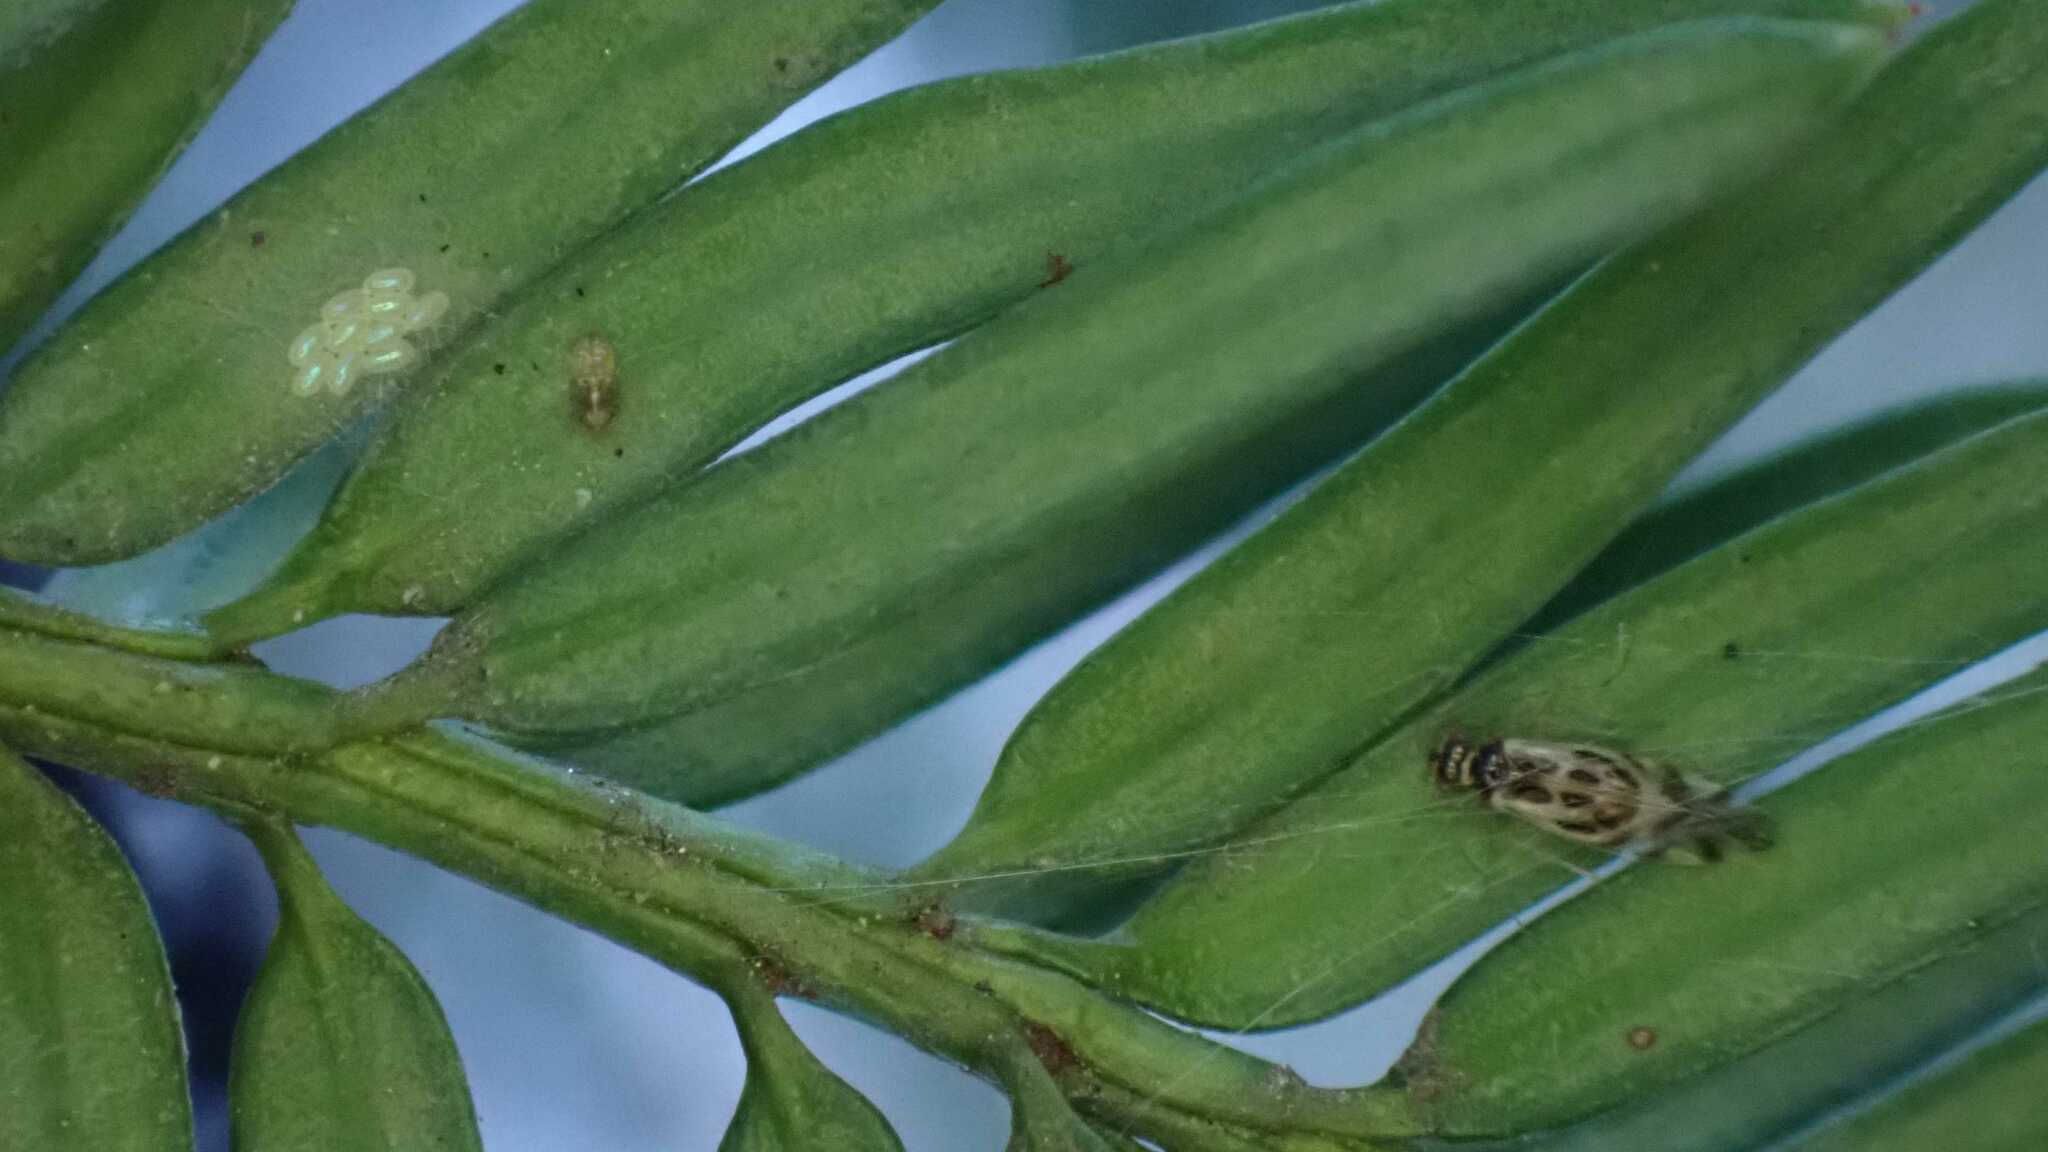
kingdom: Animalia
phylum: Arthropoda
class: Insecta
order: Psocodea
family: Stenopsocidae
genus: Graphopsocus
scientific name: Graphopsocus cruciatus
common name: Lizard bark louse
